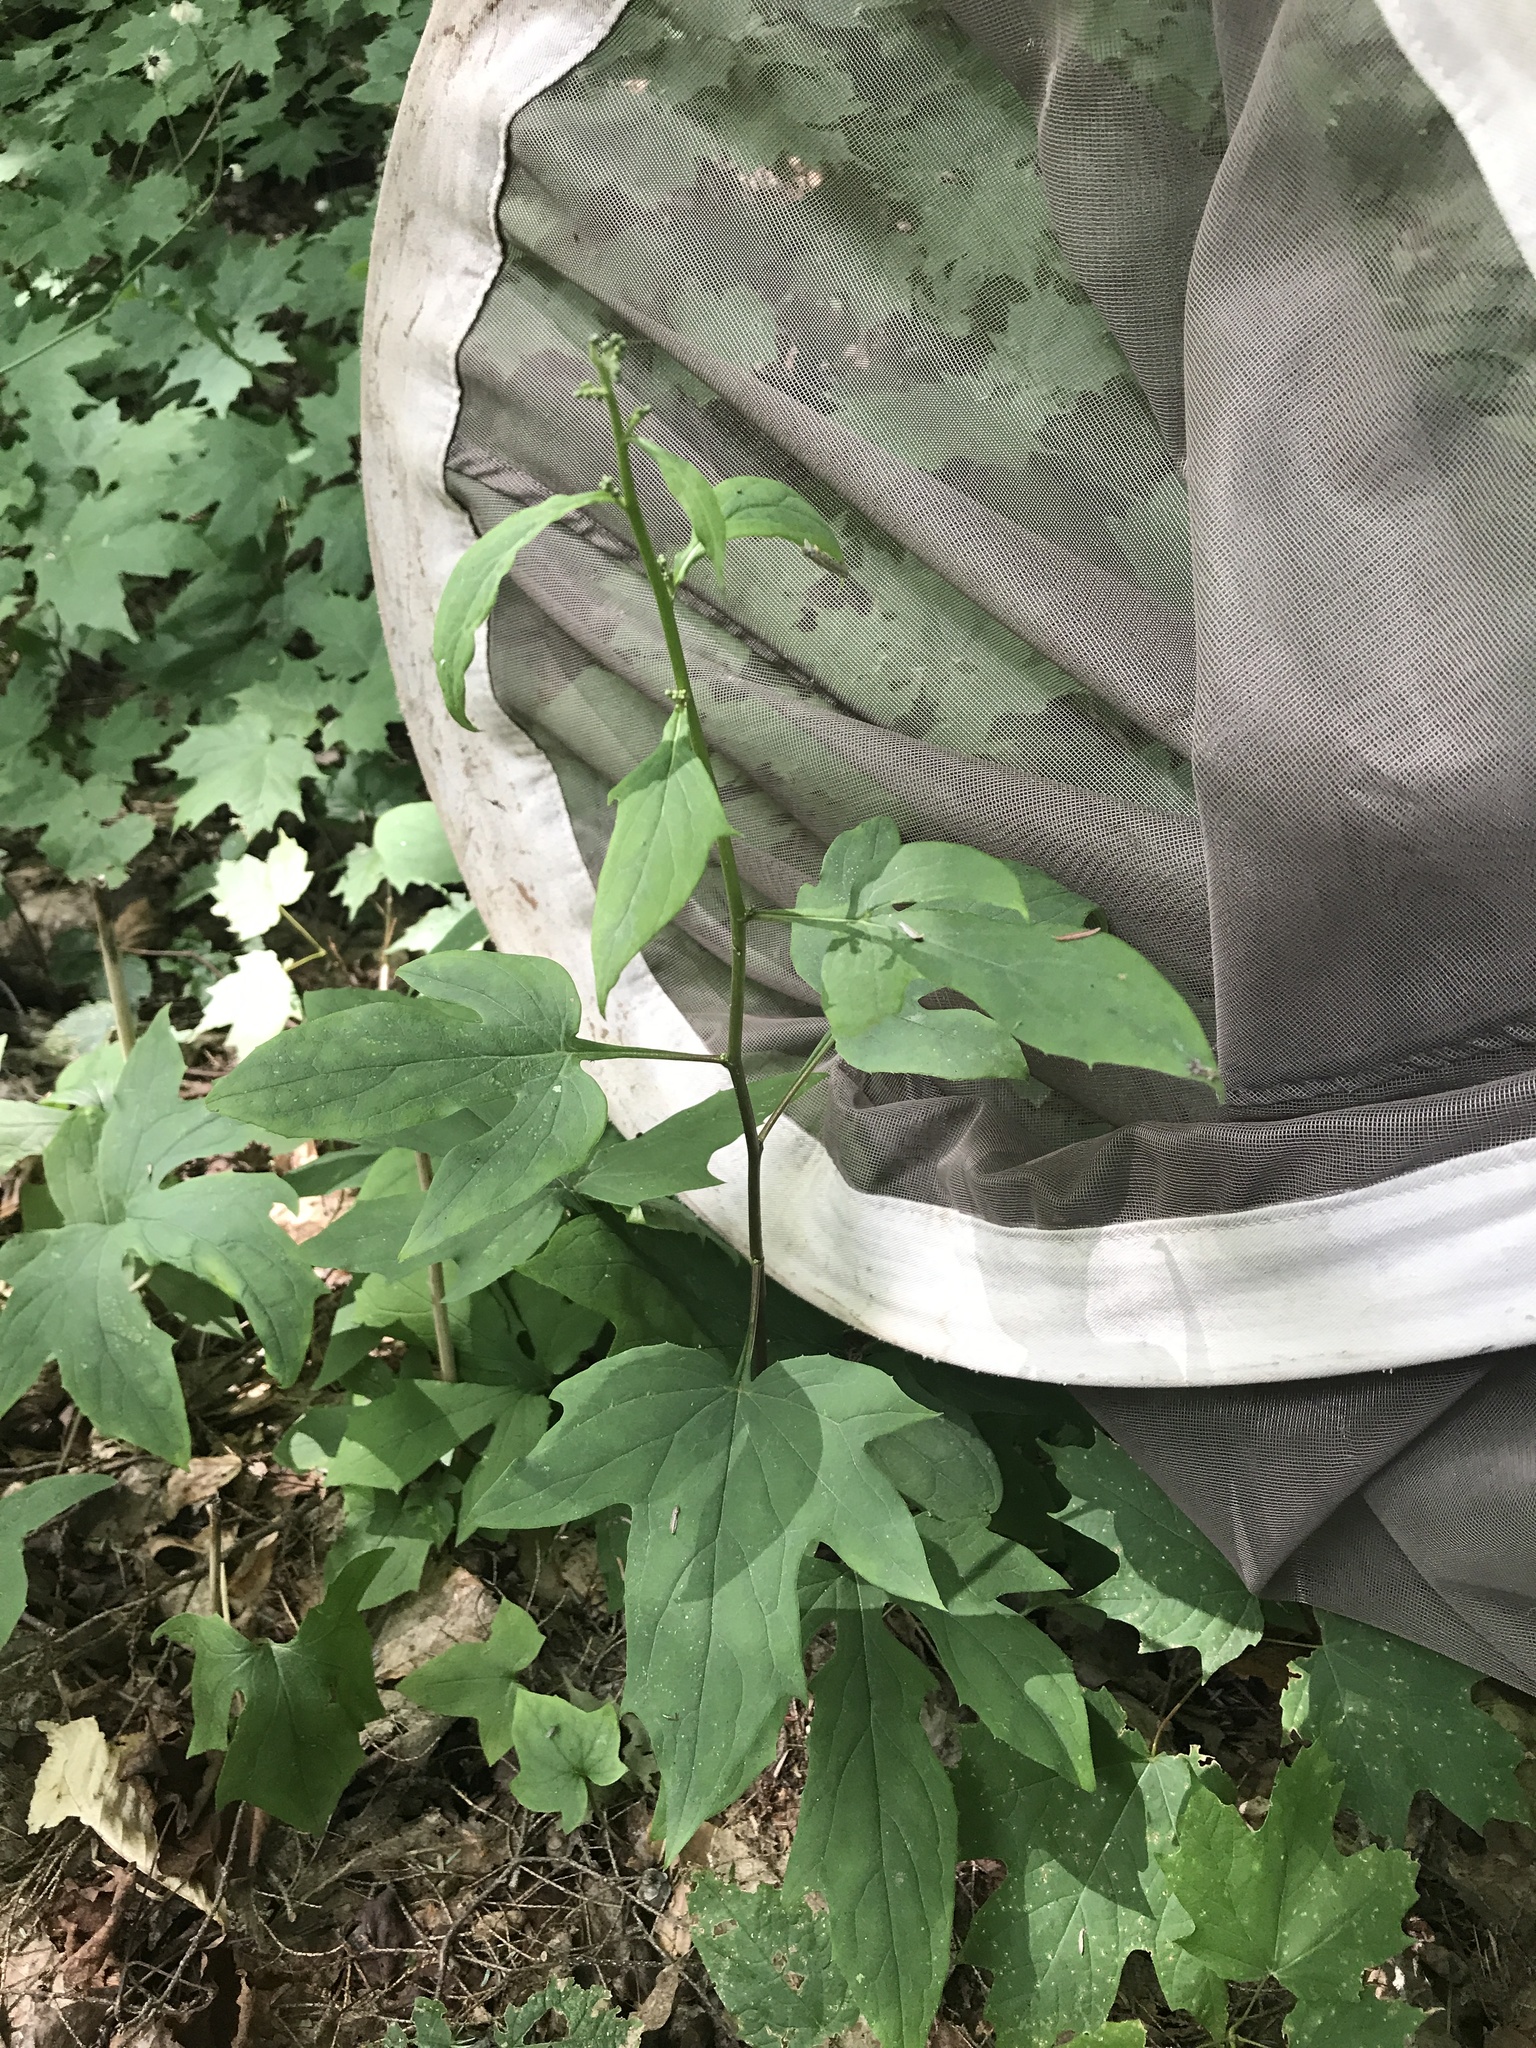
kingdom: Plantae
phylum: Tracheophyta
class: Magnoliopsida
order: Asterales
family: Asteraceae
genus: Nabalus
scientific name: Nabalus altissima
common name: Tall rattlesnakeroot
